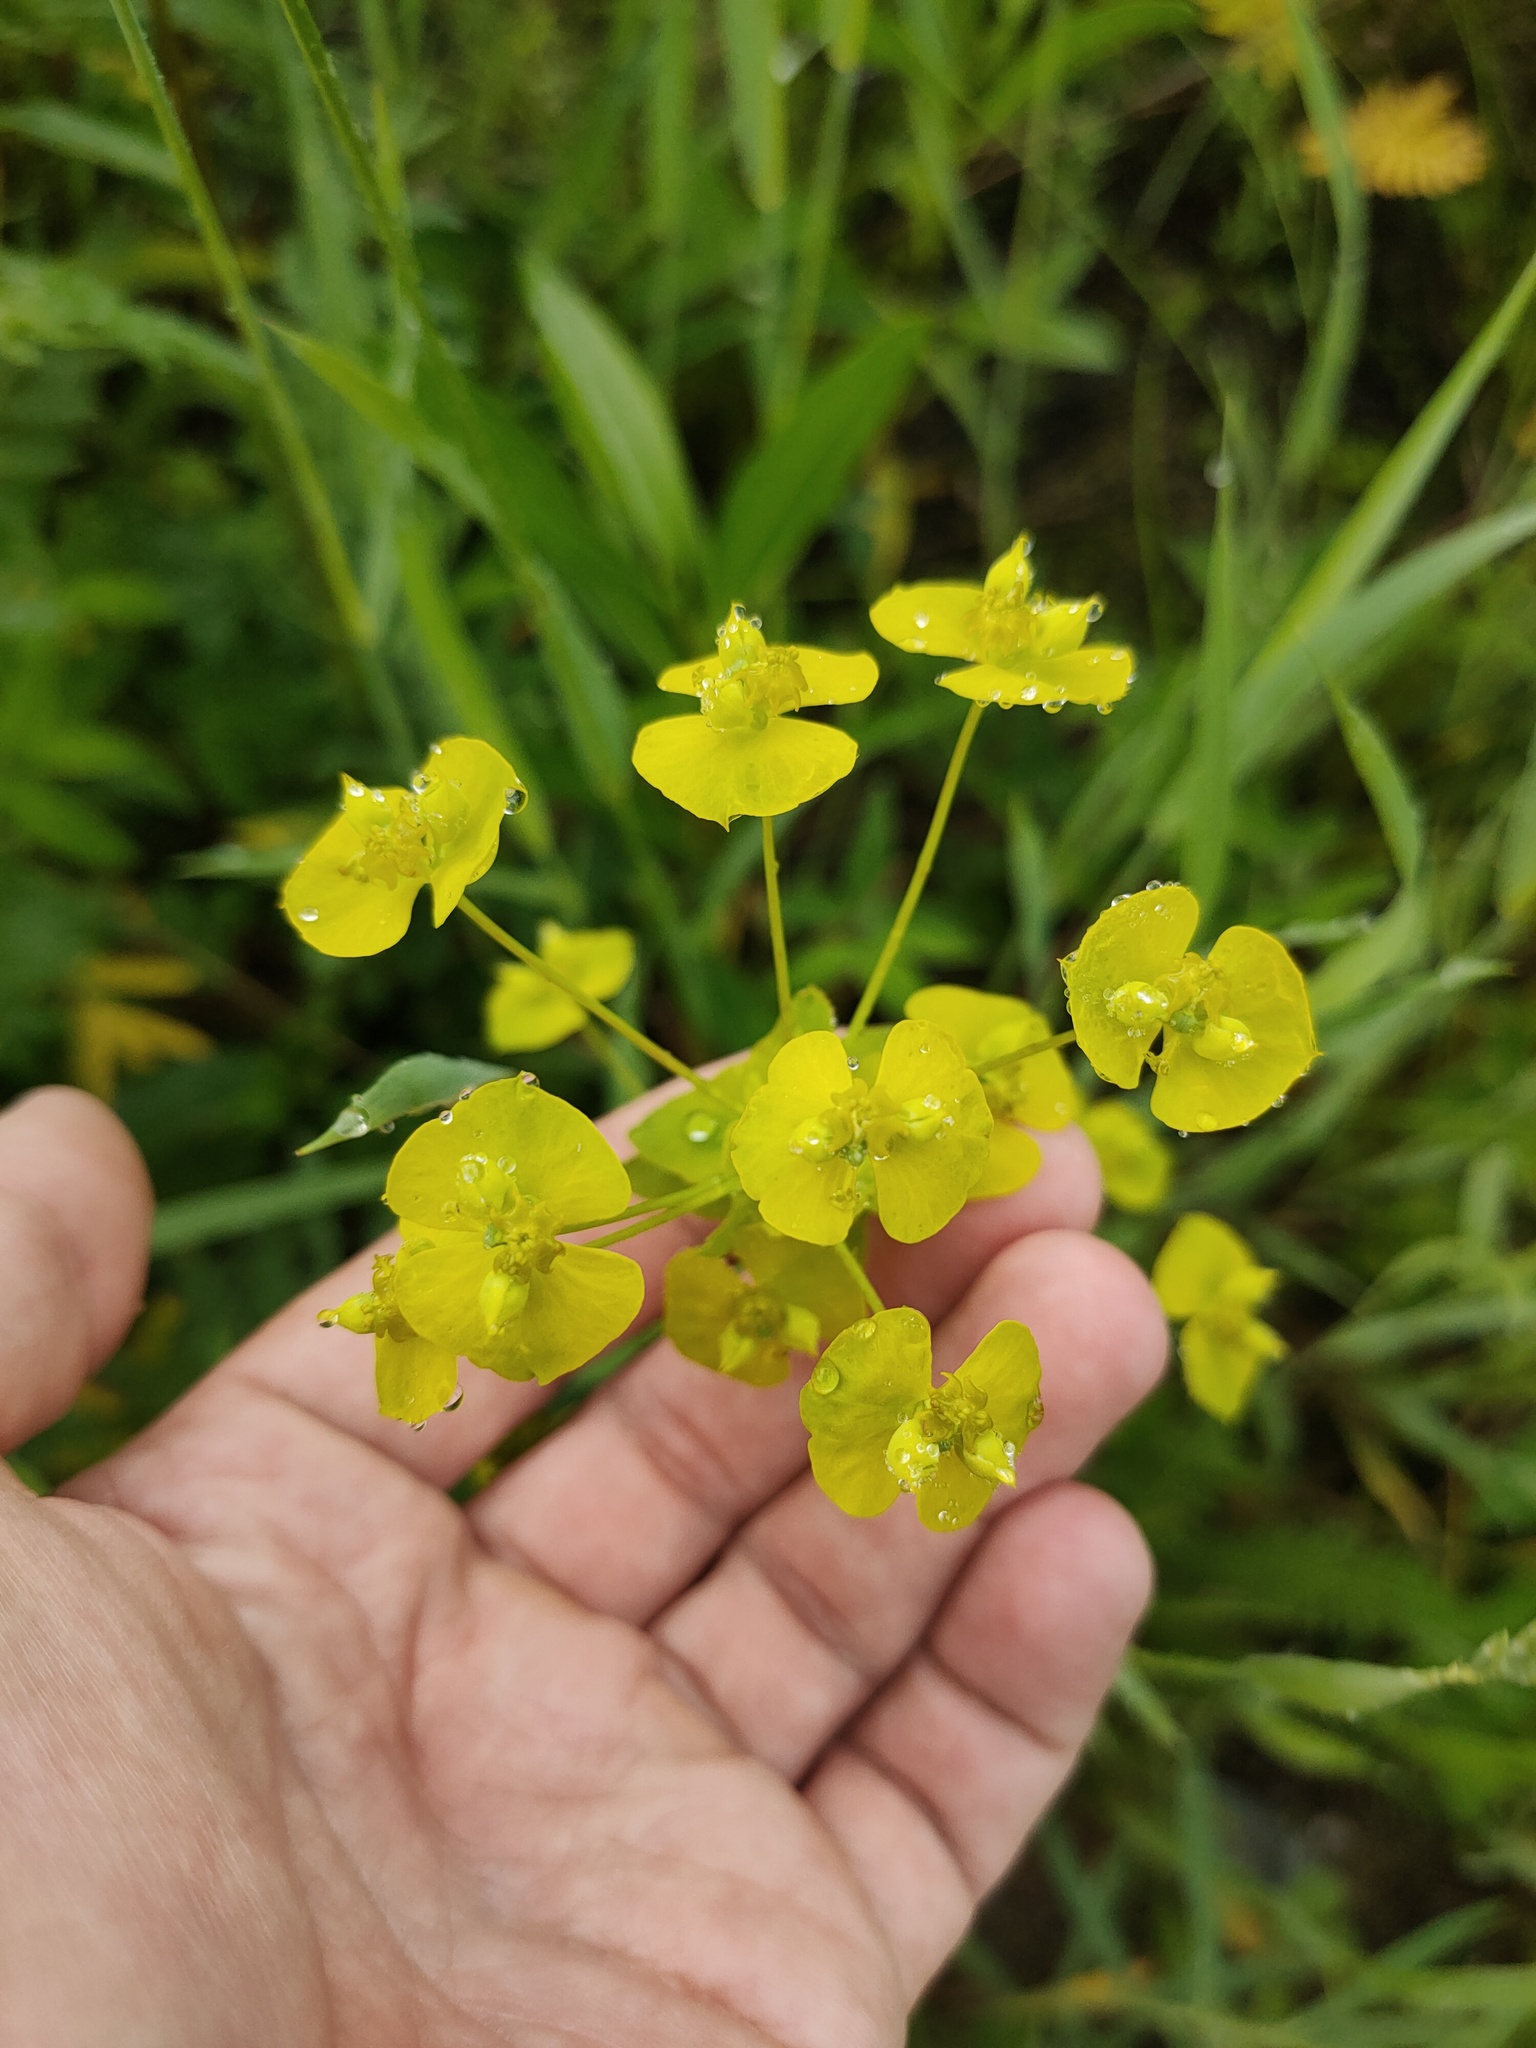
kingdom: Plantae
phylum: Tracheophyta
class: Magnoliopsida
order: Malpighiales
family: Euphorbiaceae
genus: Euphorbia
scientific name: Euphorbia virgata
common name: Leafy spurge
